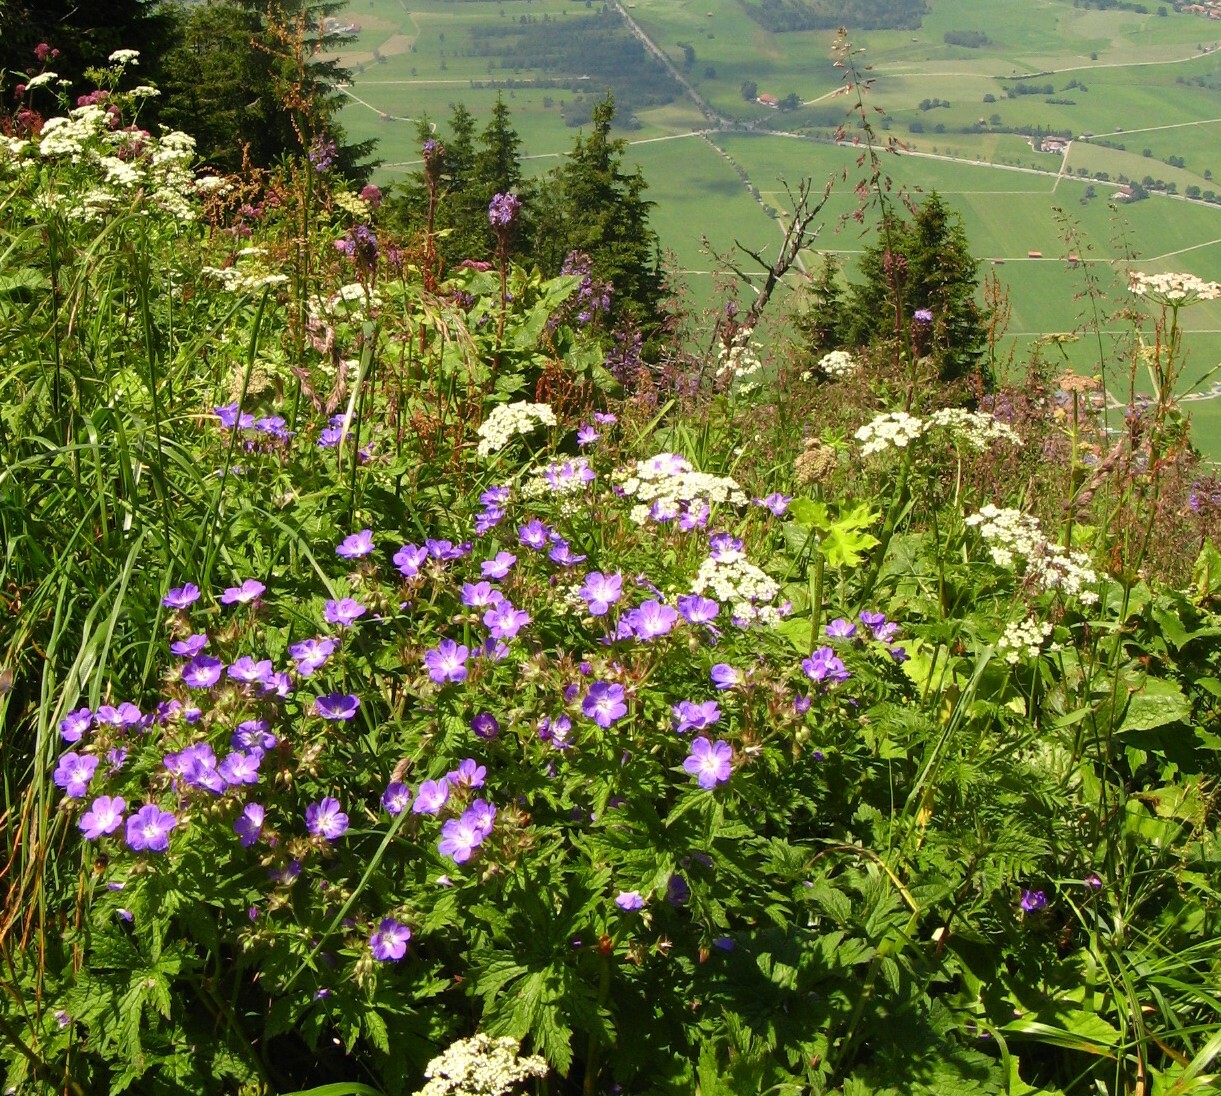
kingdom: Plantae
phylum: Tracheophyta
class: Magnoliopsida
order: Geraniales
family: Geraniaceae
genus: Geranium
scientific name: Geranium sylvaticum
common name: Wood crane's-bill
